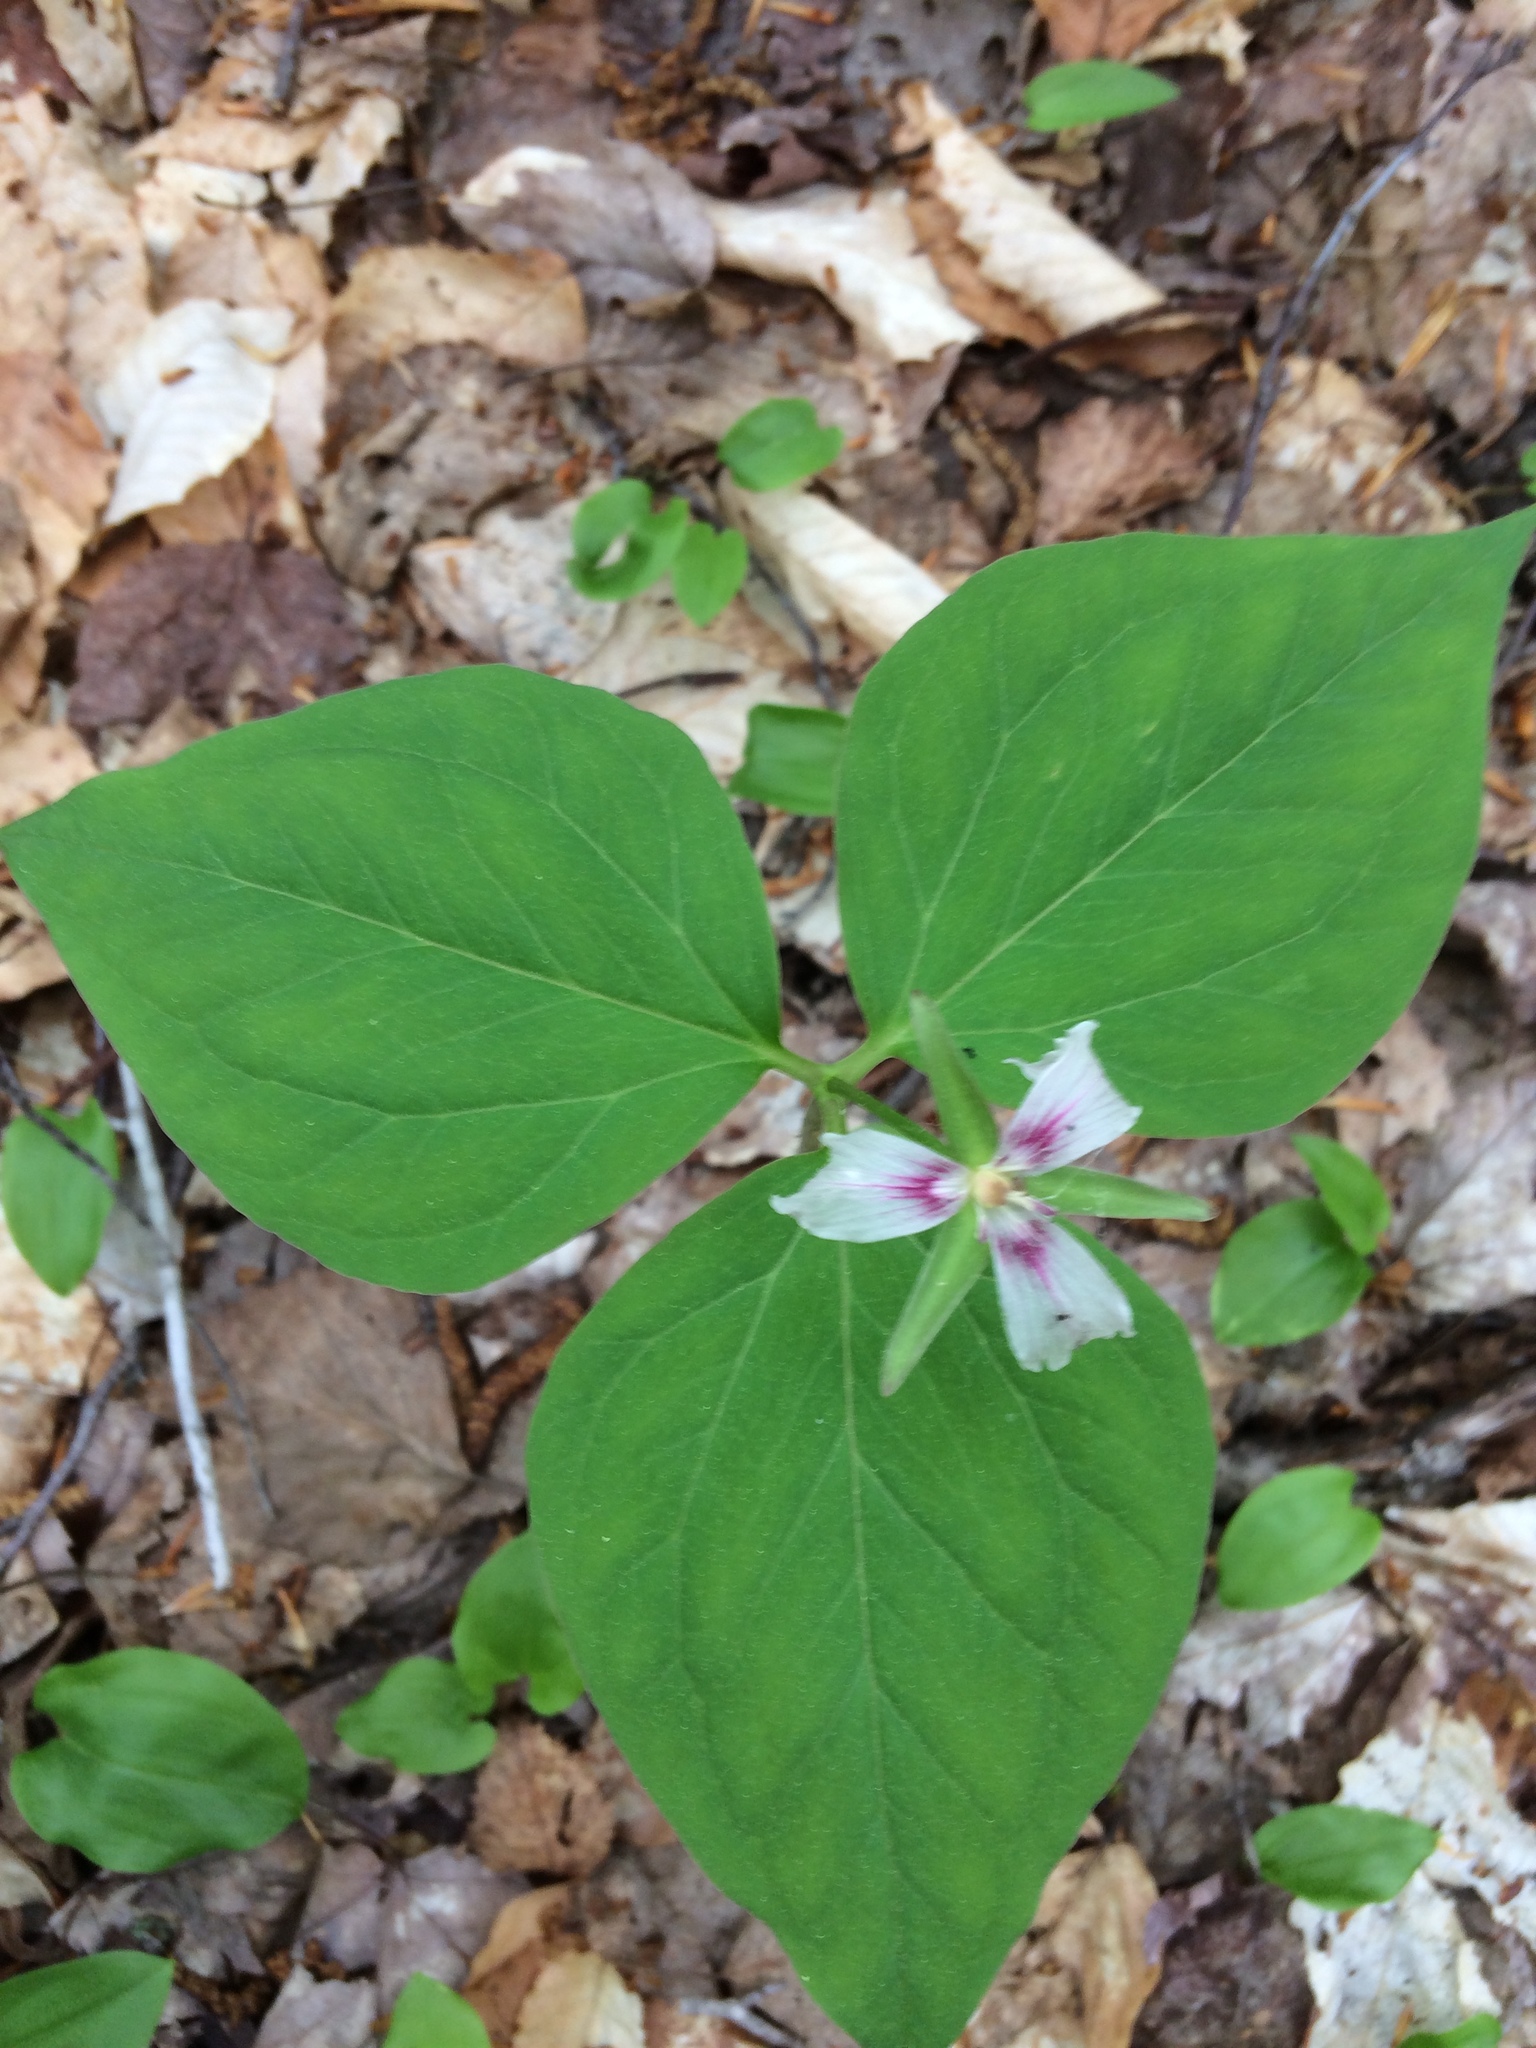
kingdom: Plantae
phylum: Tracheophyta
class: Liliopsida
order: Liliales
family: Melanthiaceae
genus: Trillium
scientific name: Trillium undulatum
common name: Paint trillium
